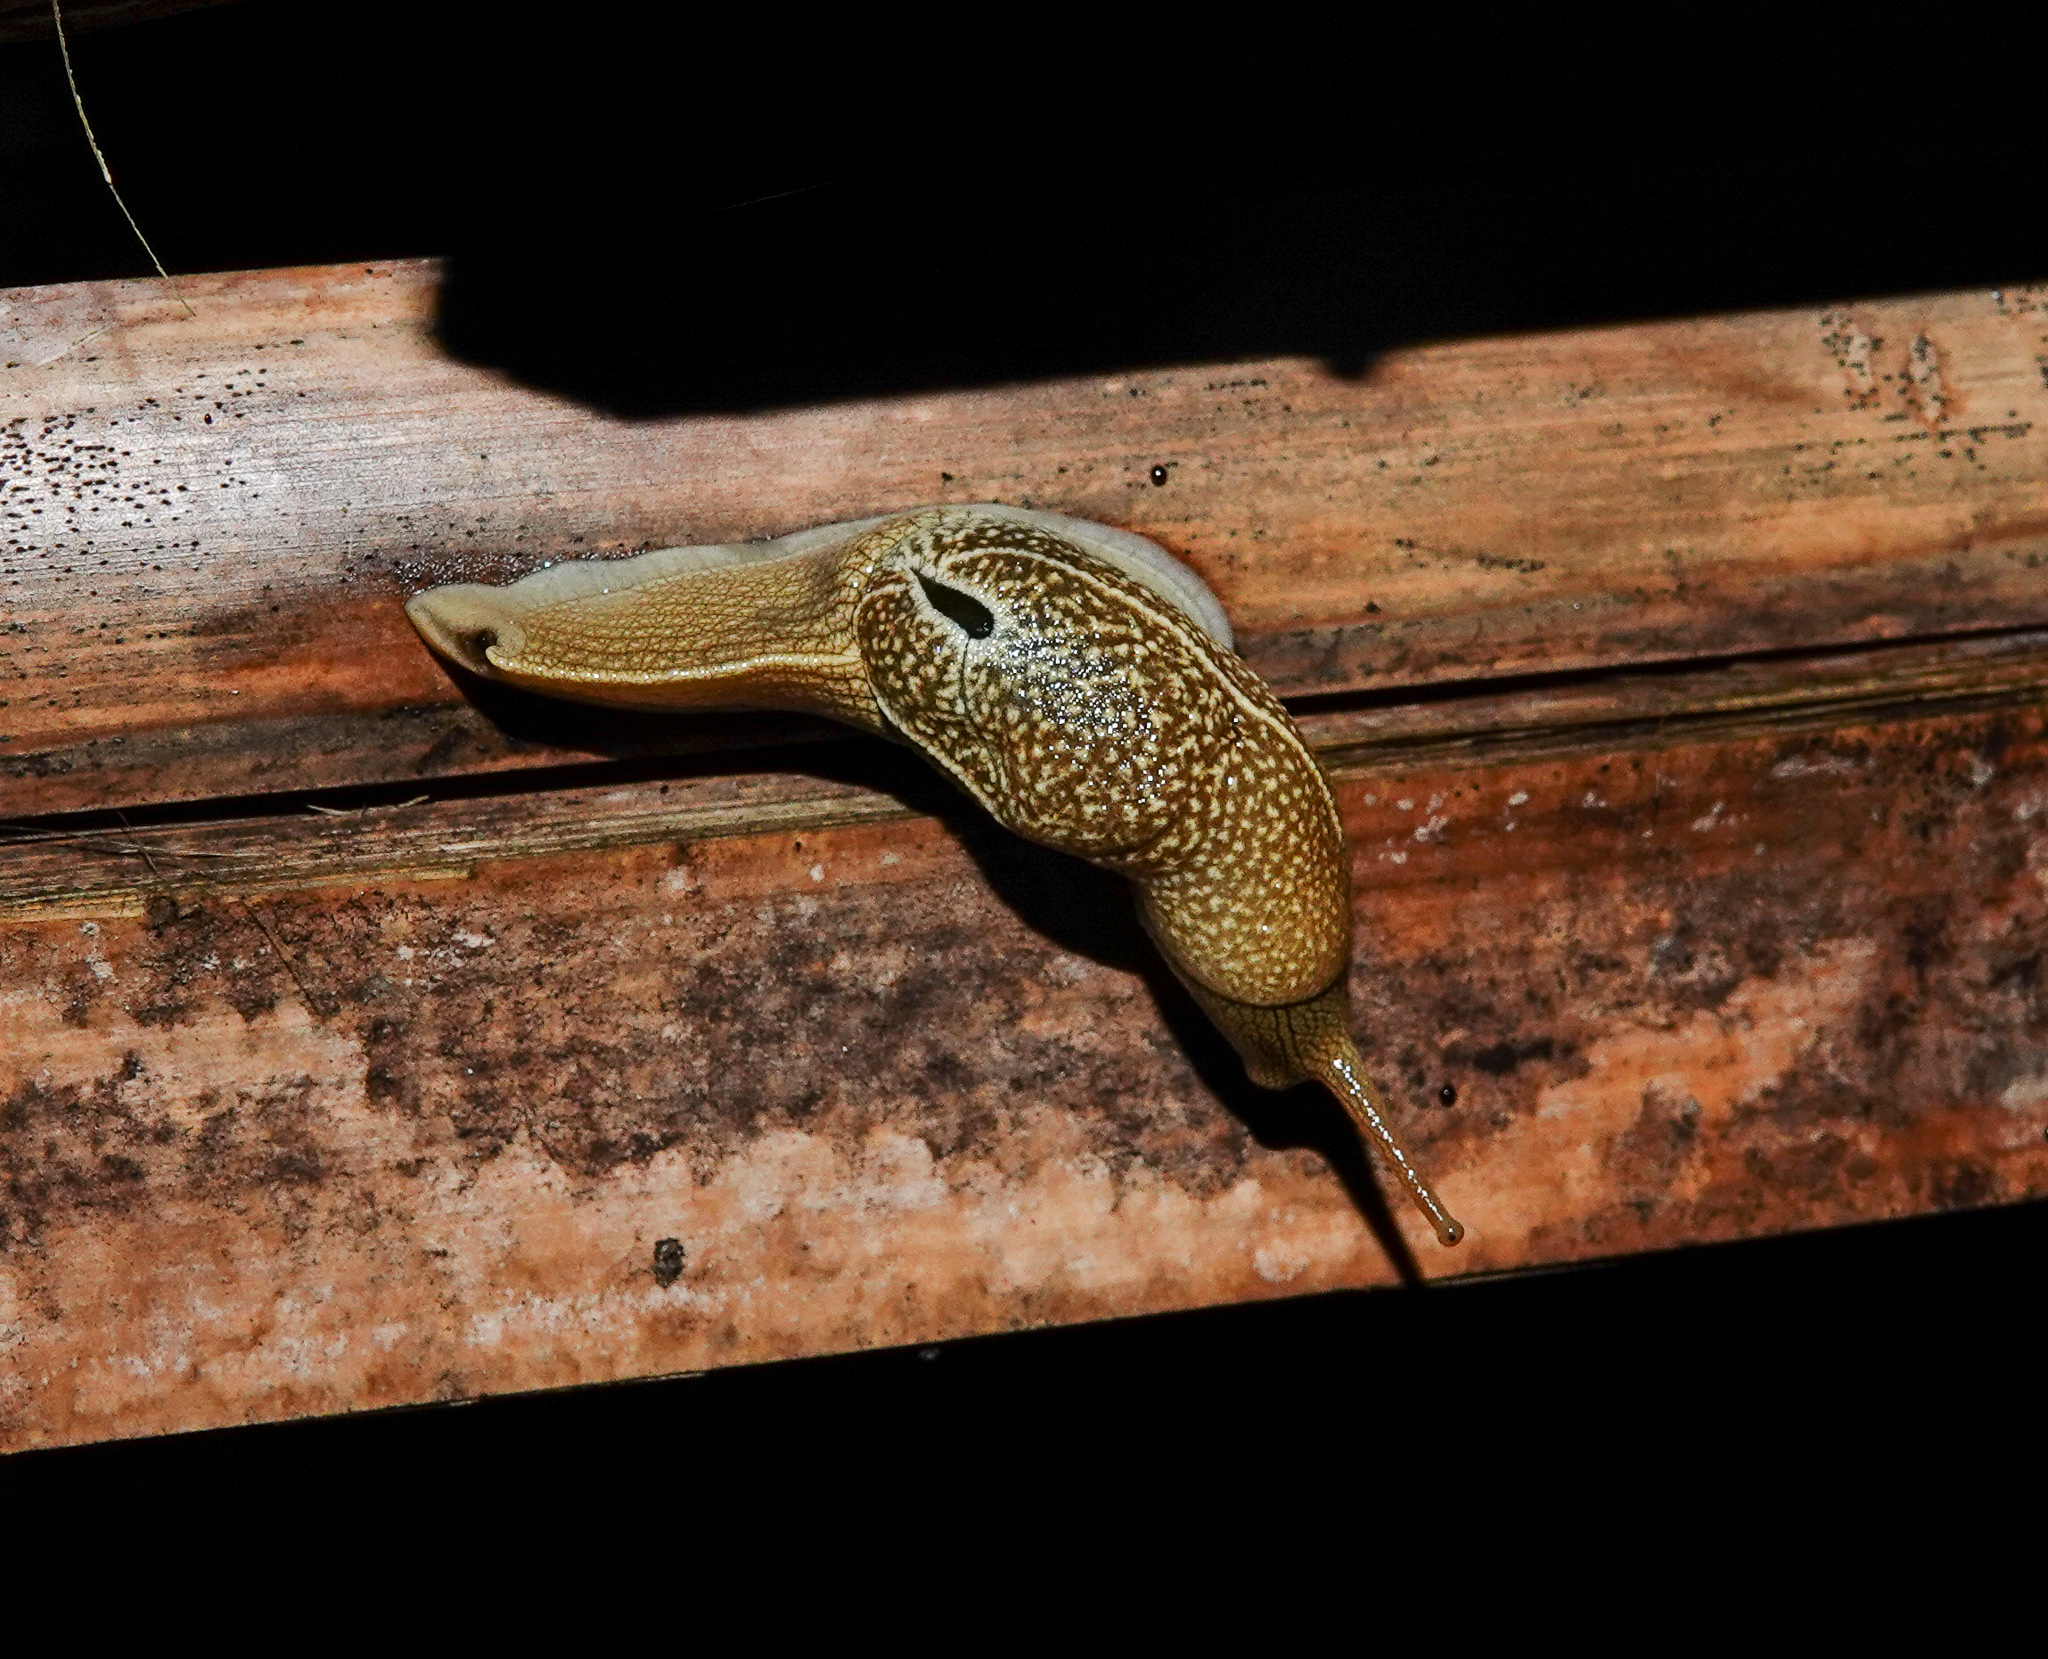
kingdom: Animalia
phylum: Mollusca
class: Gastropoda
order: Stylommatophora
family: Helicarionidae
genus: Girasia
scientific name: Girasia crocea
